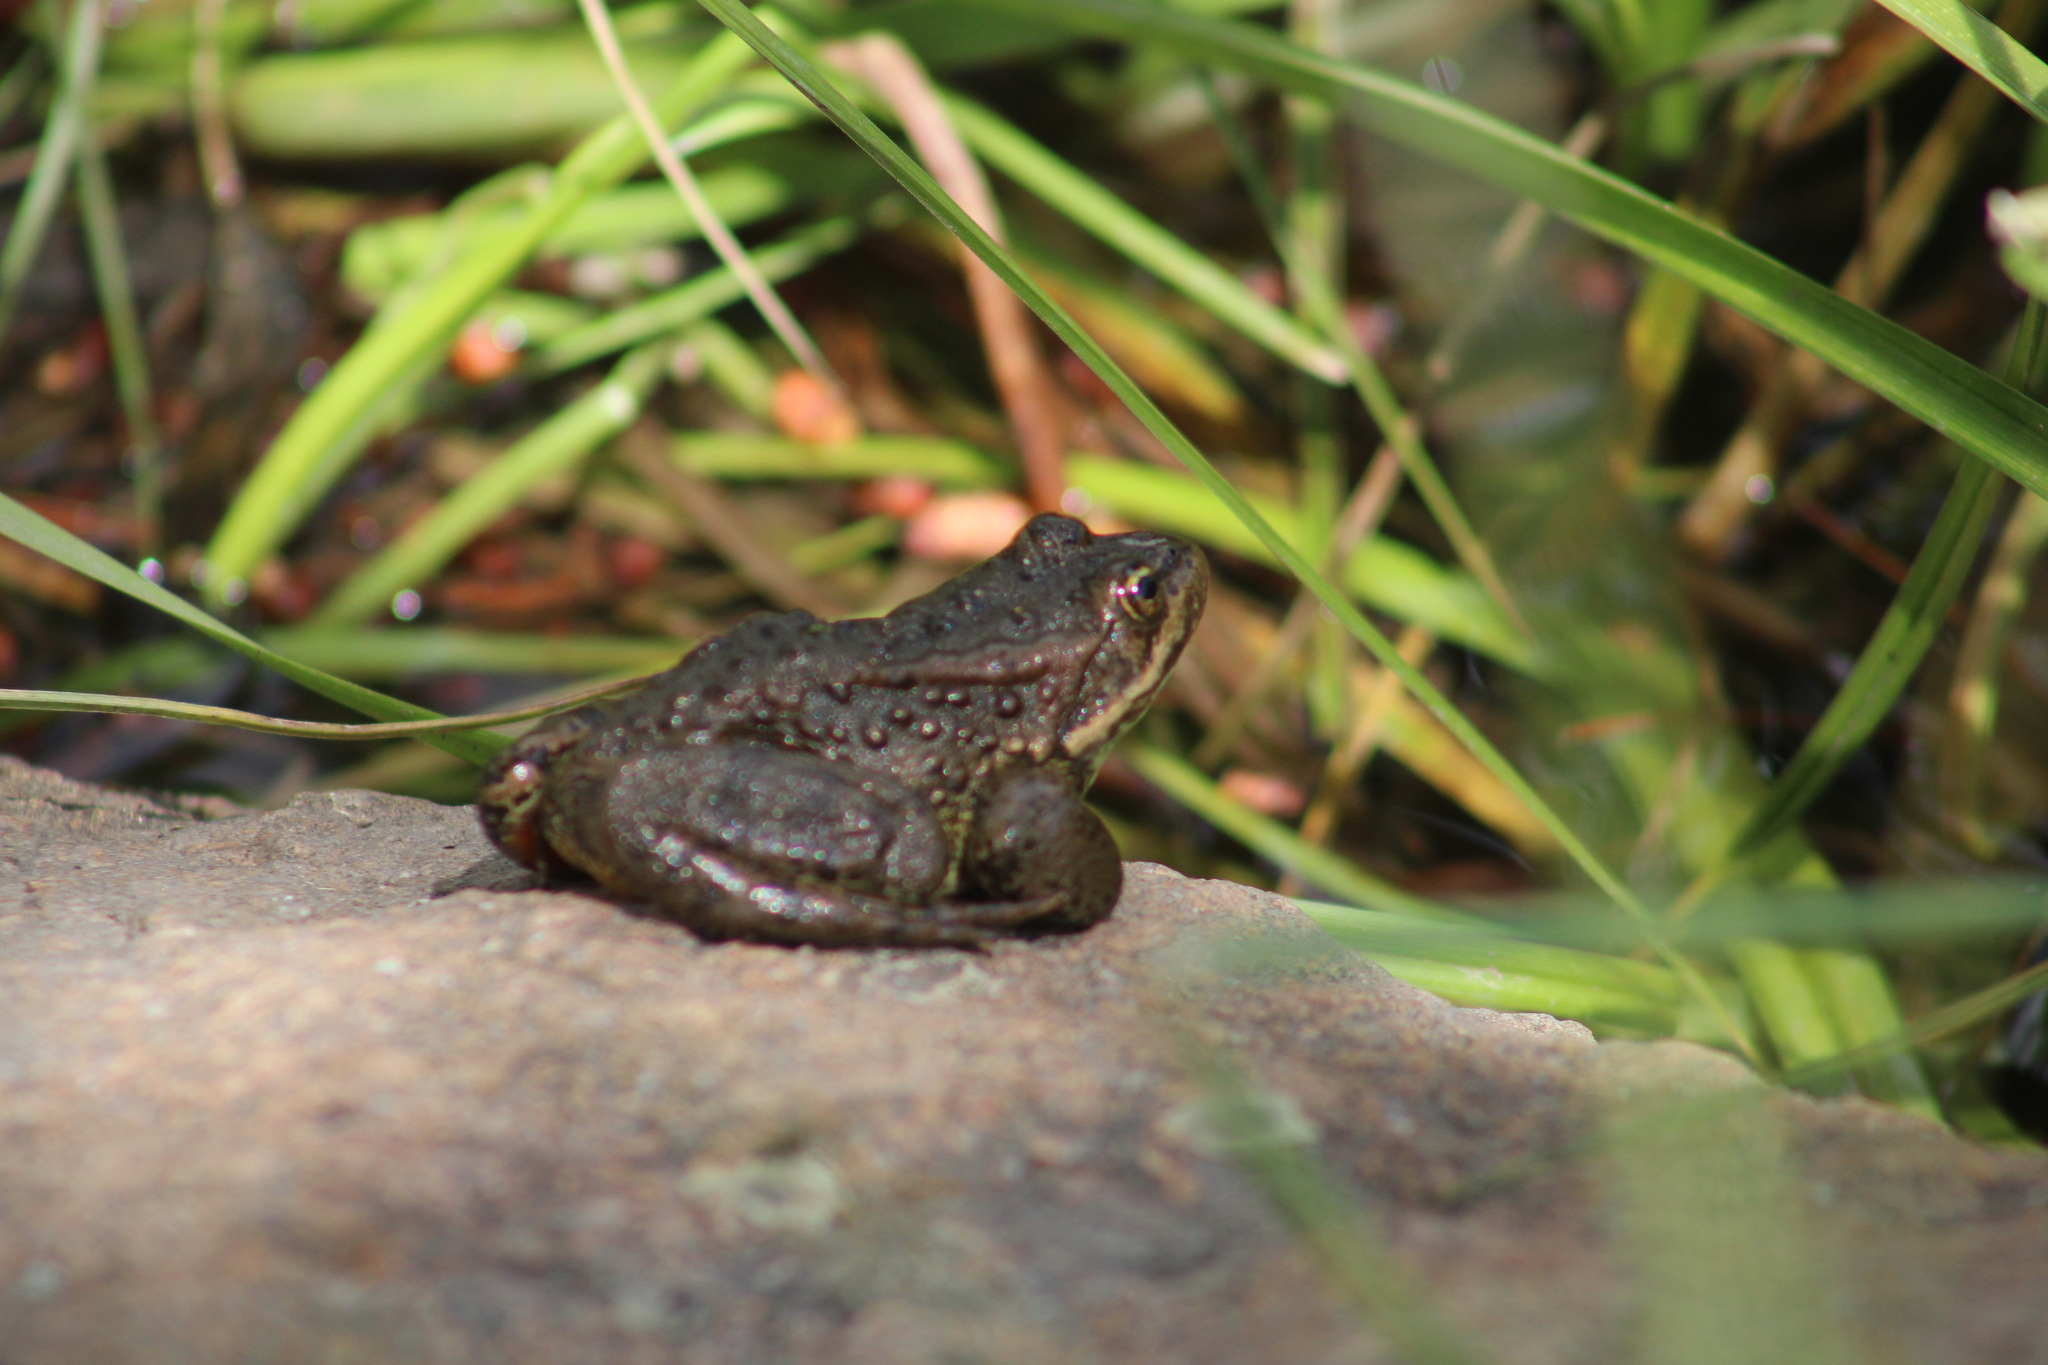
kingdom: Animalia
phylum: Chordata
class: Amphibia
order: Anura
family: Ranidae
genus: Rana
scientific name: Rana luteiventris
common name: Columbia spotted frog
